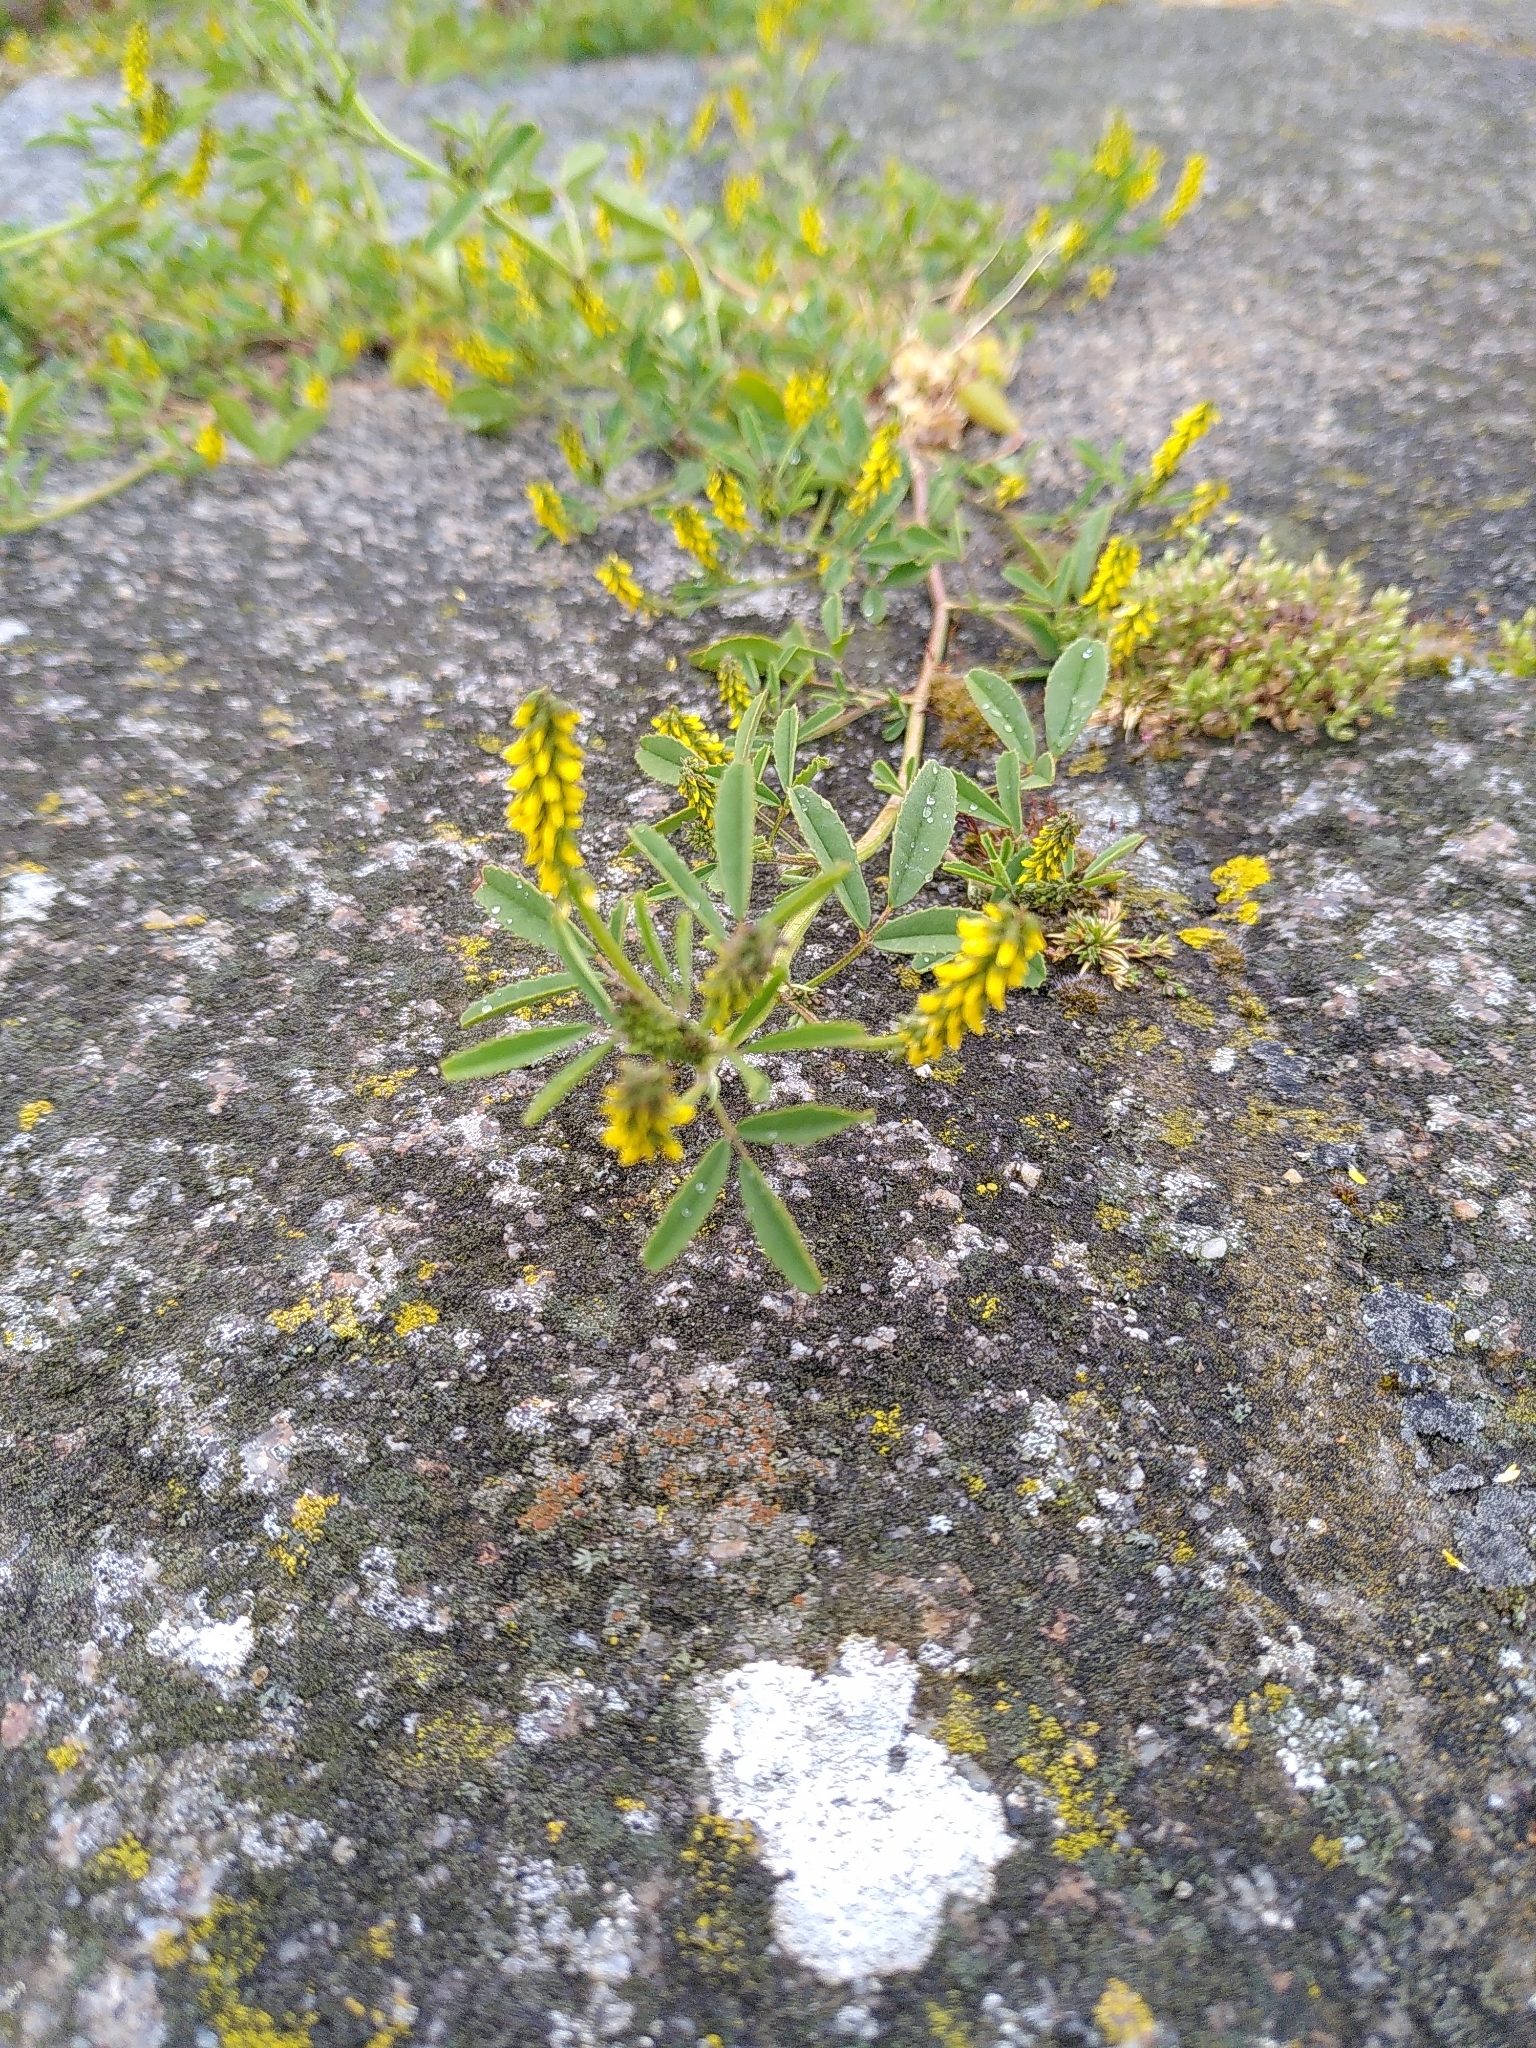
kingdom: Plantae
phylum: Tracheophyta
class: Magnoliopsida
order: Fabales
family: Fabaceae
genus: Melilotus
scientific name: Melilotus indicus
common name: Small melilot
